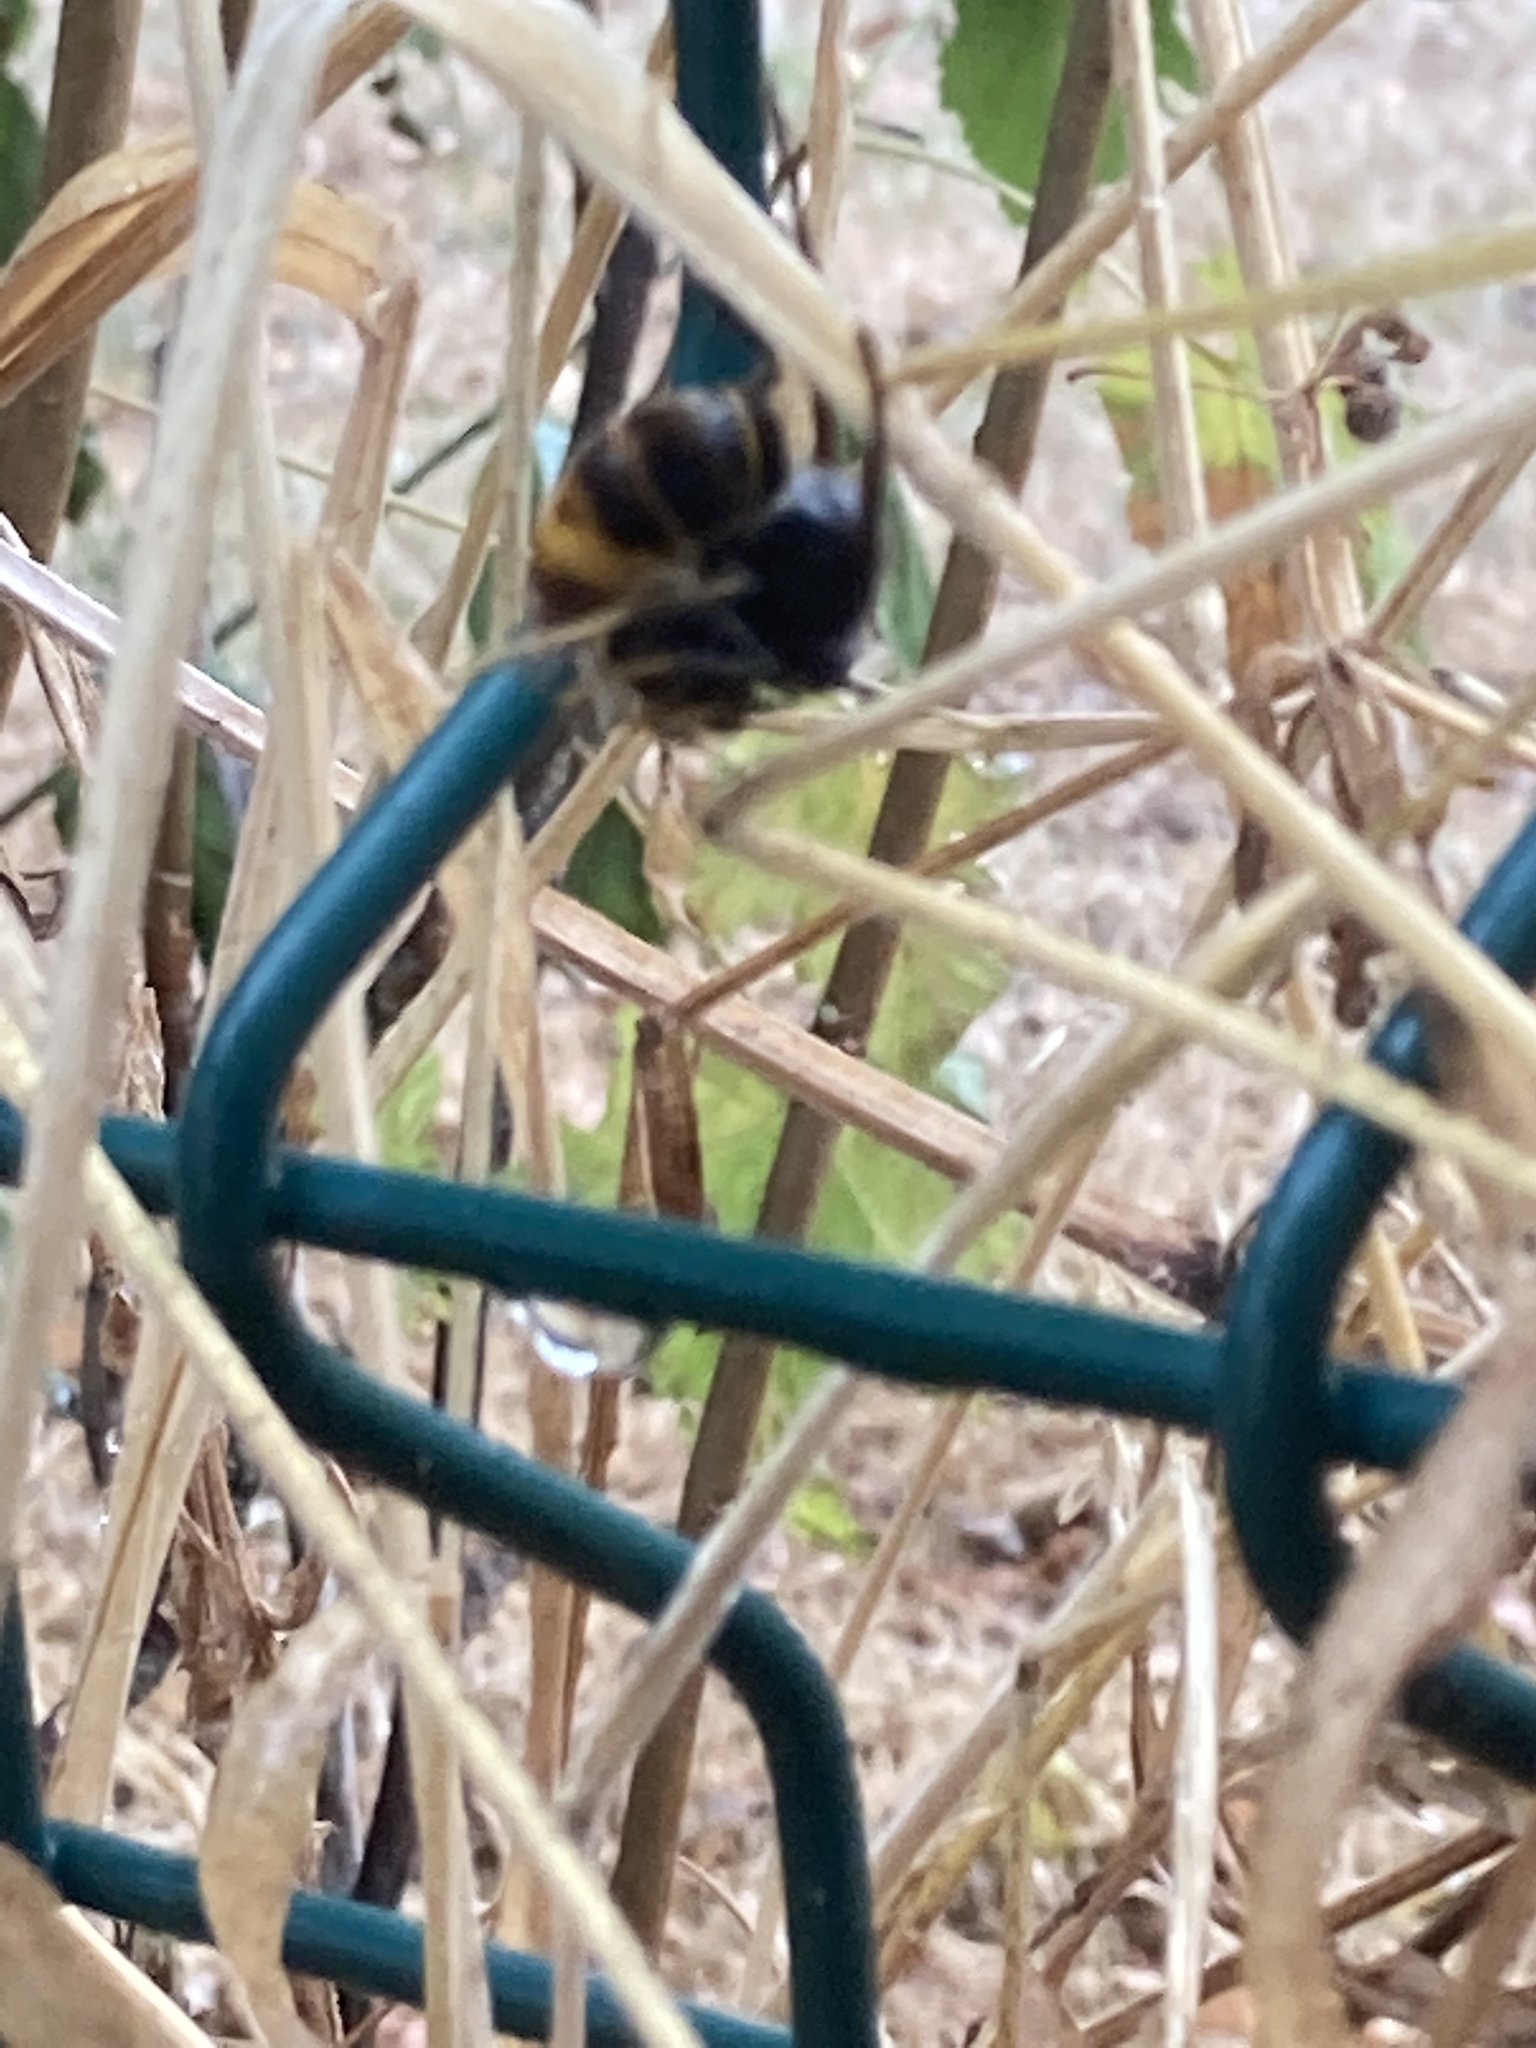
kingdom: Animalia
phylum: Arthropoda
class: Insecta
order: Hymenoptera
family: Vespidae
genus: Vespa
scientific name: Vespa velutina
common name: Asian hornet
